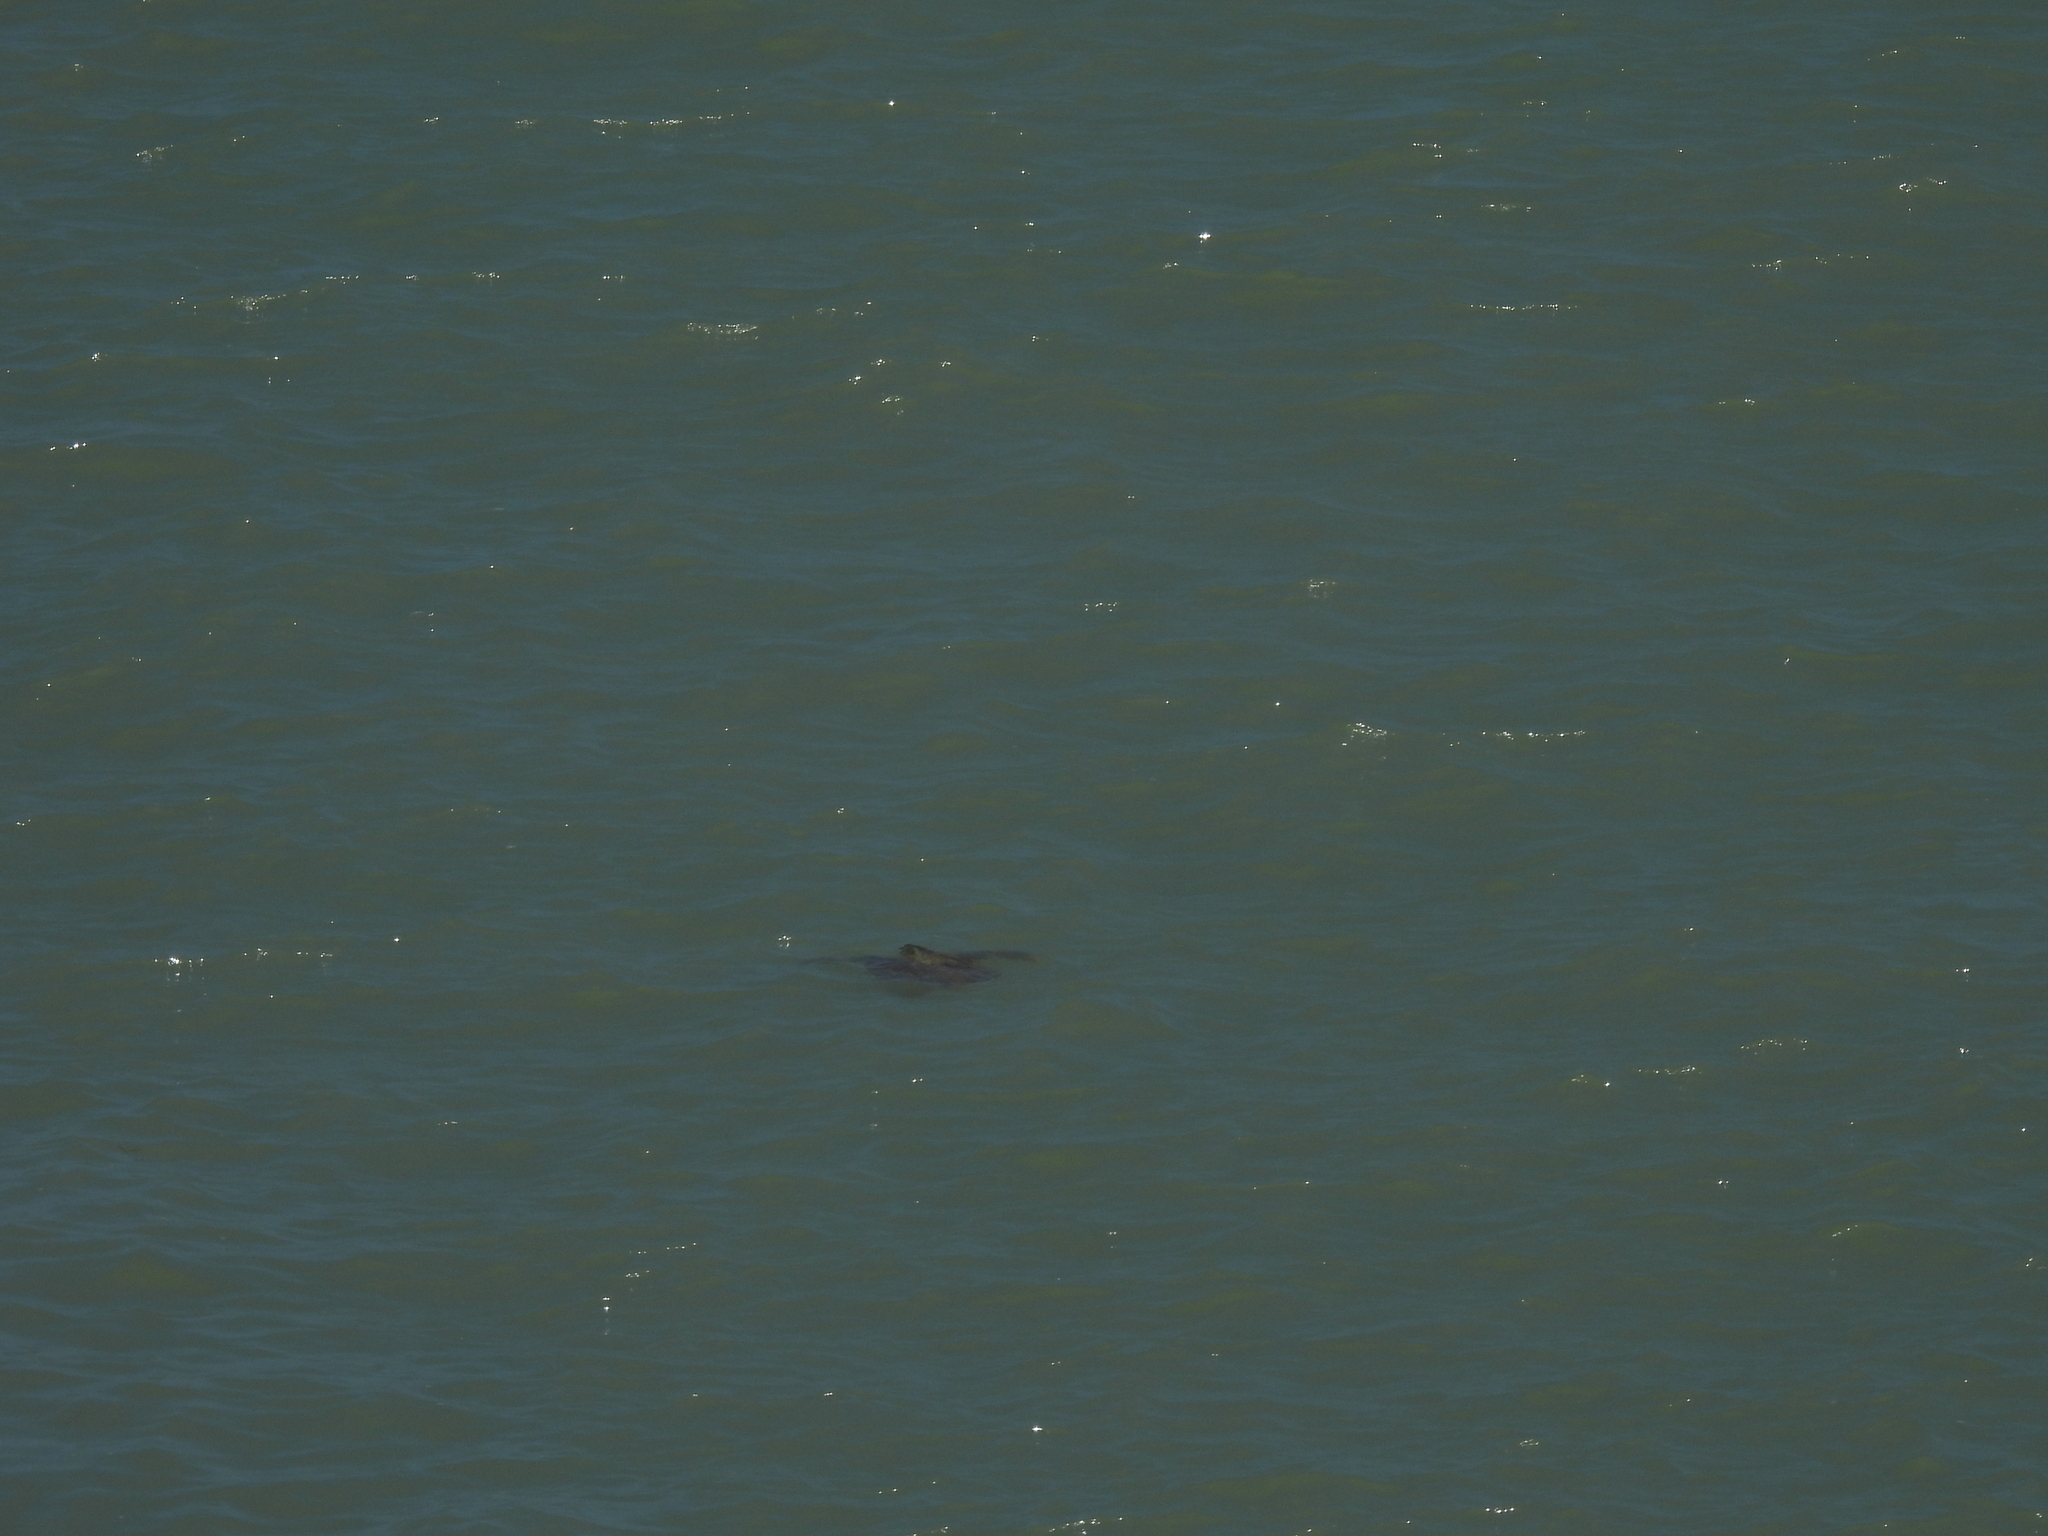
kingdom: Animalia
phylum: Chordata
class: Testudines
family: Cheloniidae
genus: Chelonia
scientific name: Chelonia mydas
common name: Green turtle
